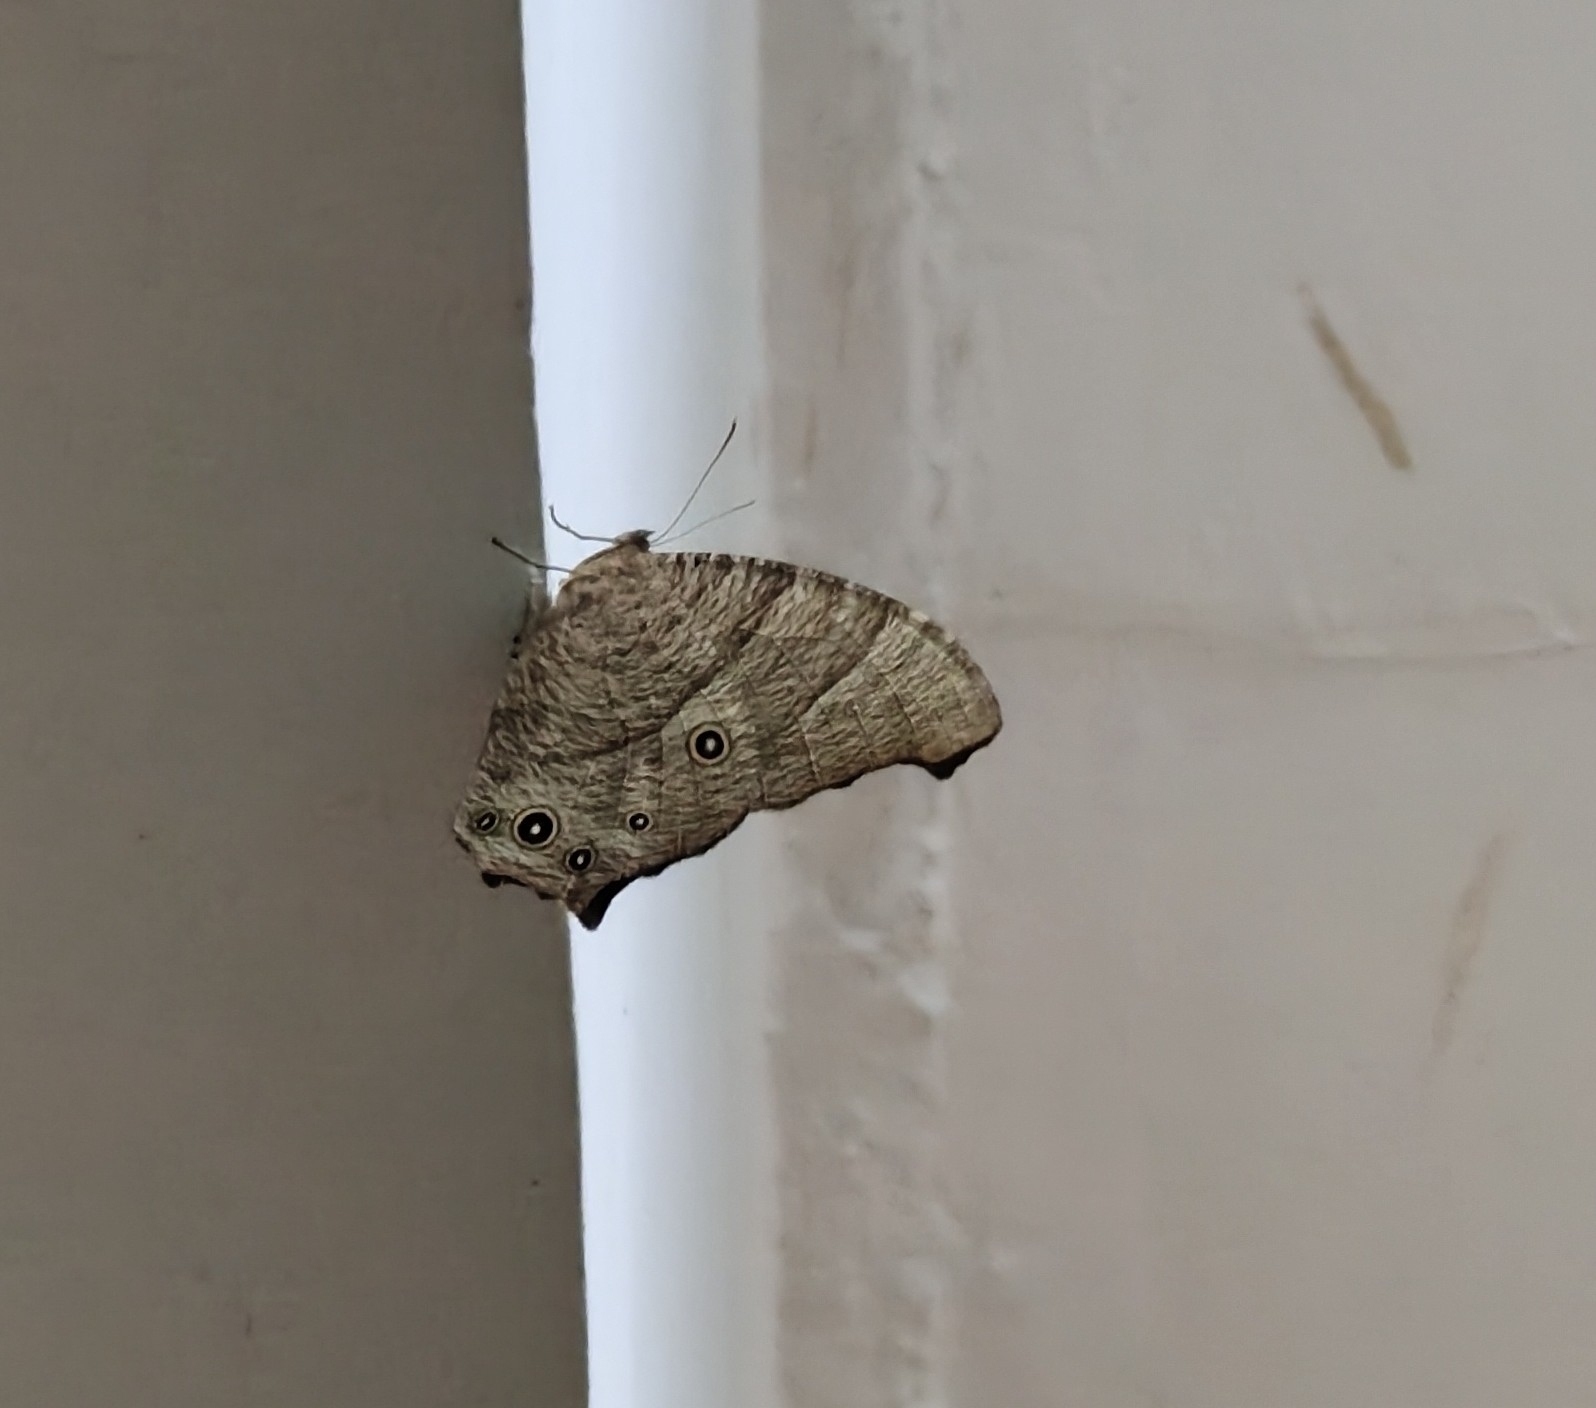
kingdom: Animalia
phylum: Arthropoda
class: Insecta
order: Lepidoptera
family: Nymphalidae
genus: Melanitis
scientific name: Melanitis leda
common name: Twilight brown
